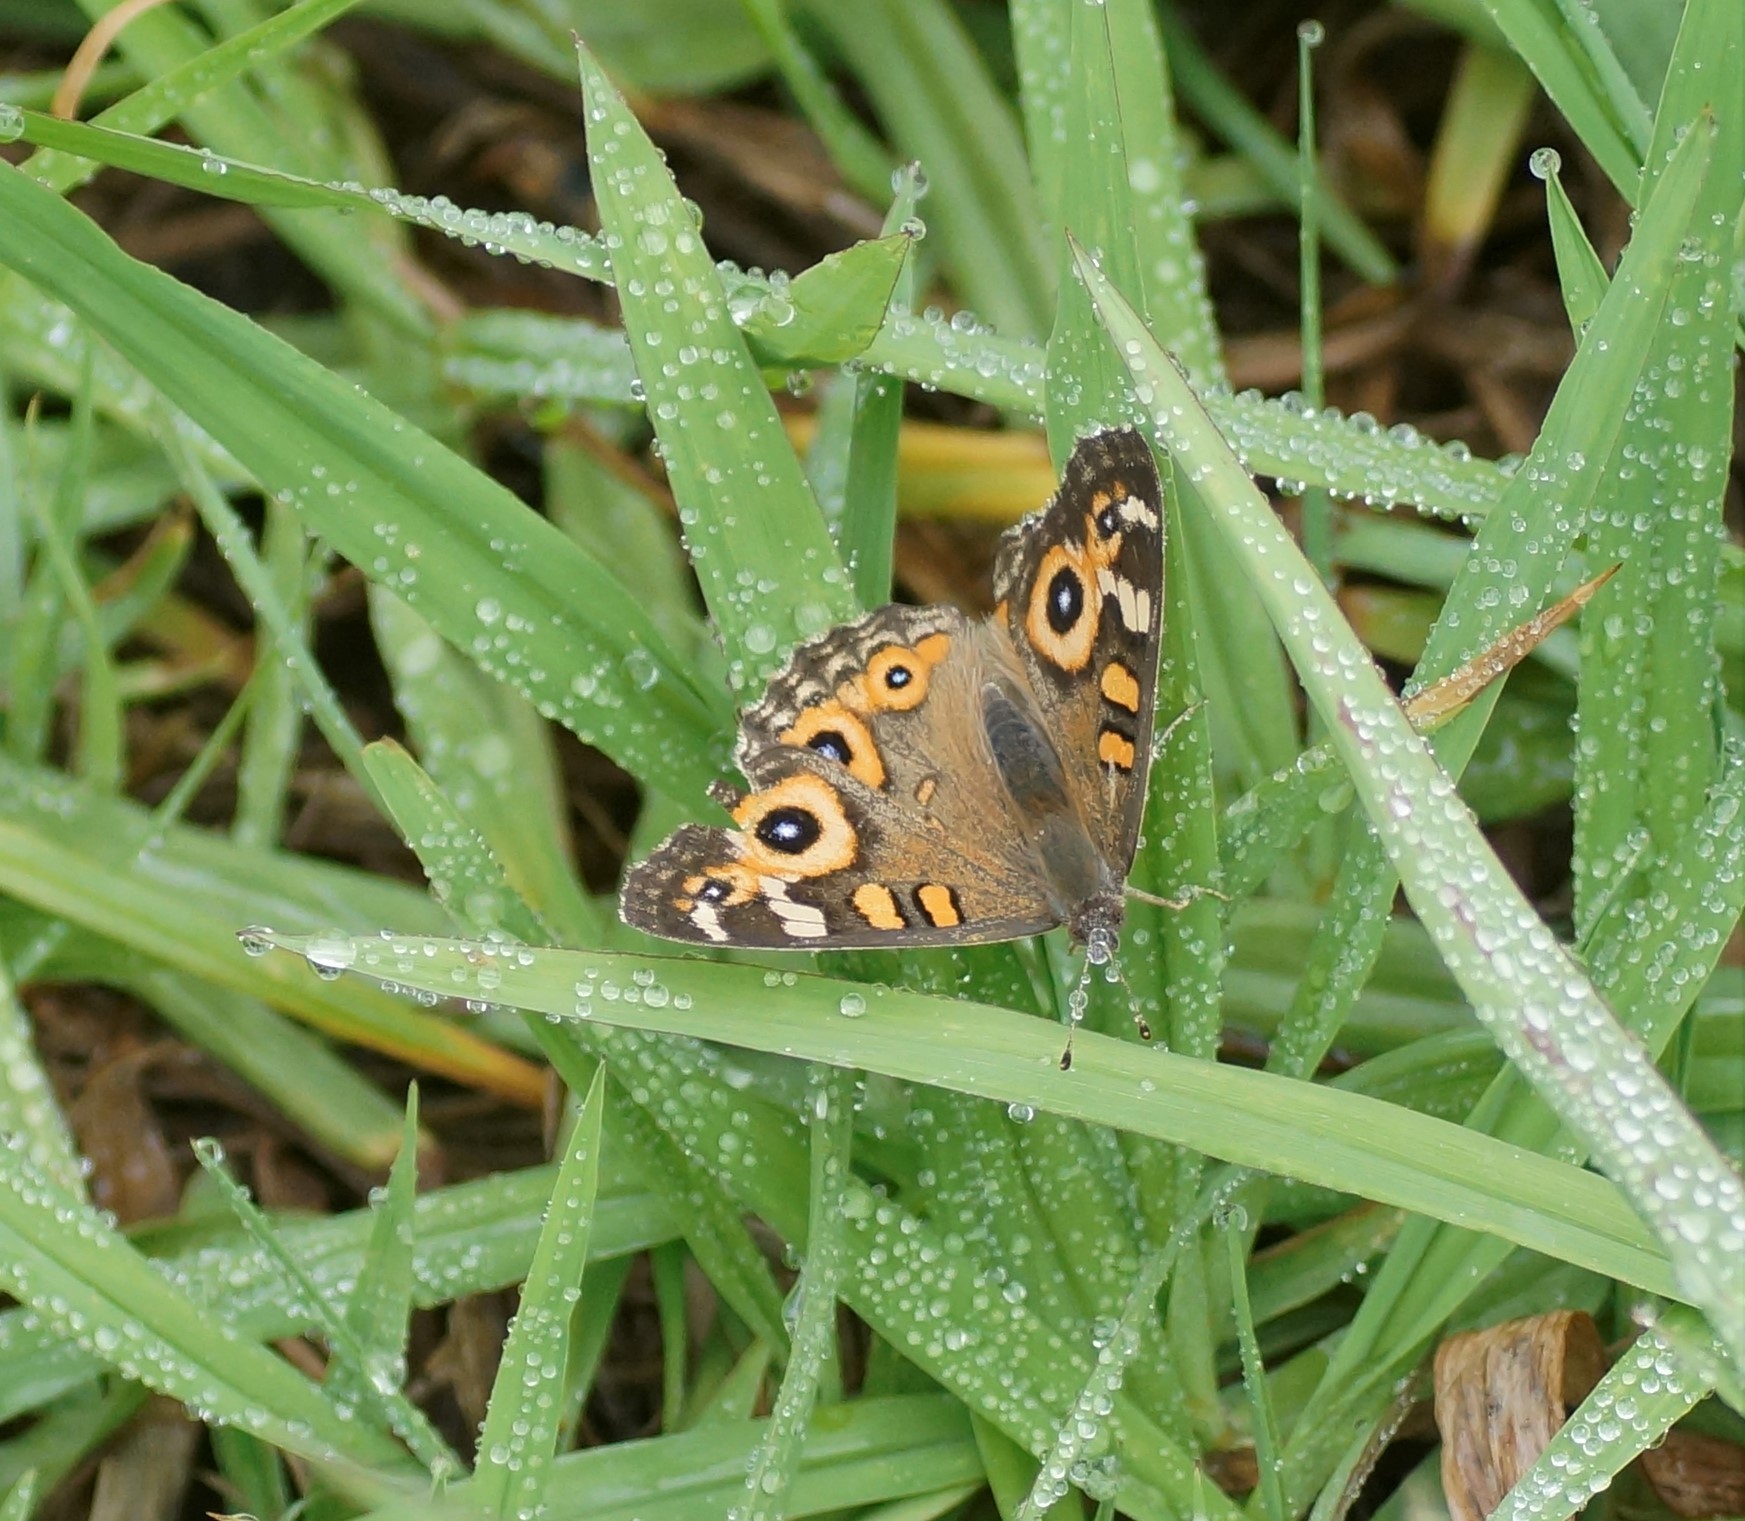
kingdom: Animalia
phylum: Arthropoda
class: Insecta
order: Lepidoptera
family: Nymphalidae
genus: Junonia
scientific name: Junonia villida
